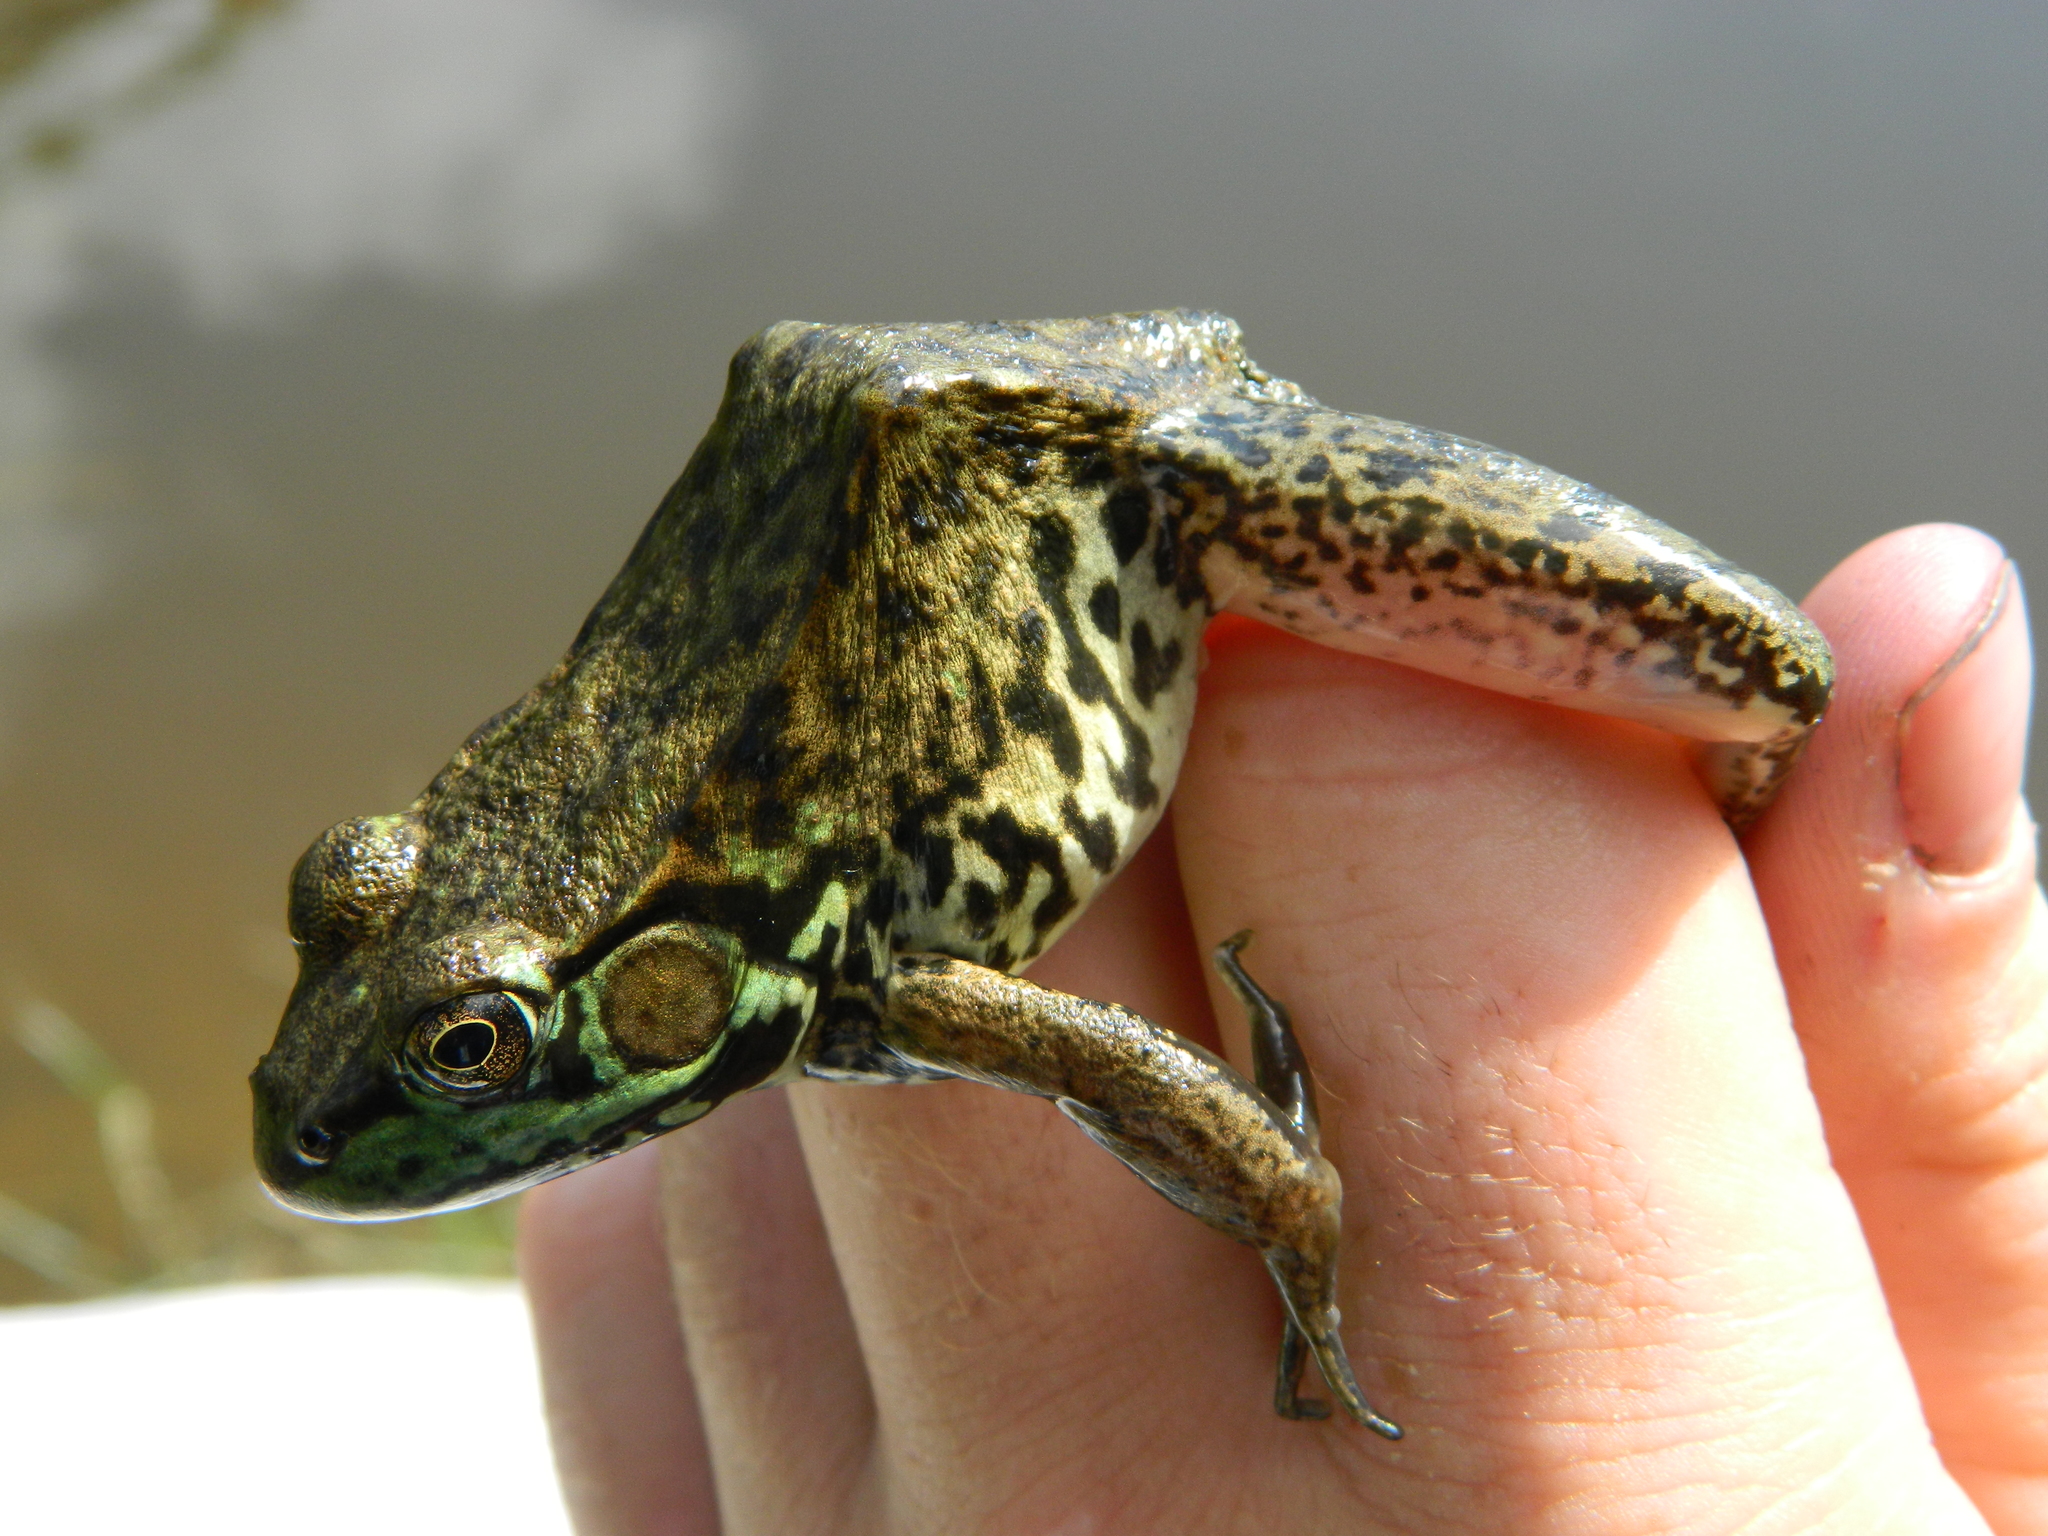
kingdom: Animalia
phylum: Chordata
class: Amphibia
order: Anura
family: Ranidae
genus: Lithobates
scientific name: Lithobates clamitans
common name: Green frog
